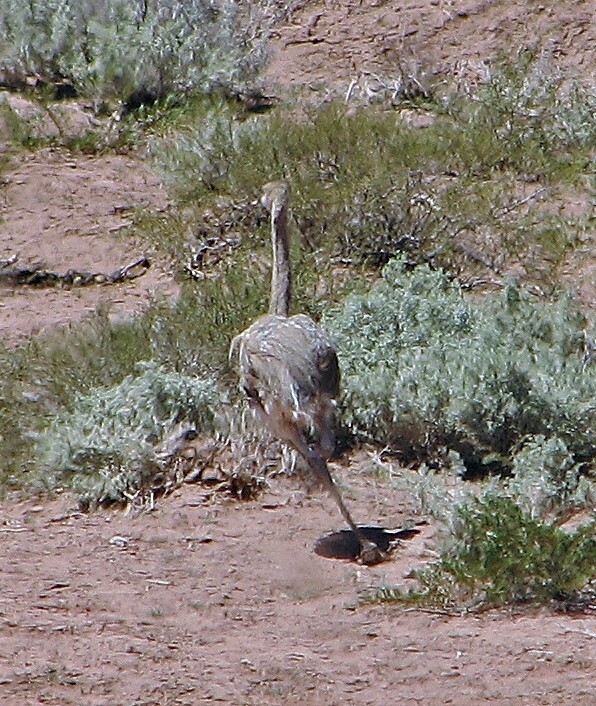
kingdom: Animalia
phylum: Chordata
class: Aves
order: Rheiformes
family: Rheidae
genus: Rhea
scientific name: Rhea pennata
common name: Lesser rhea
